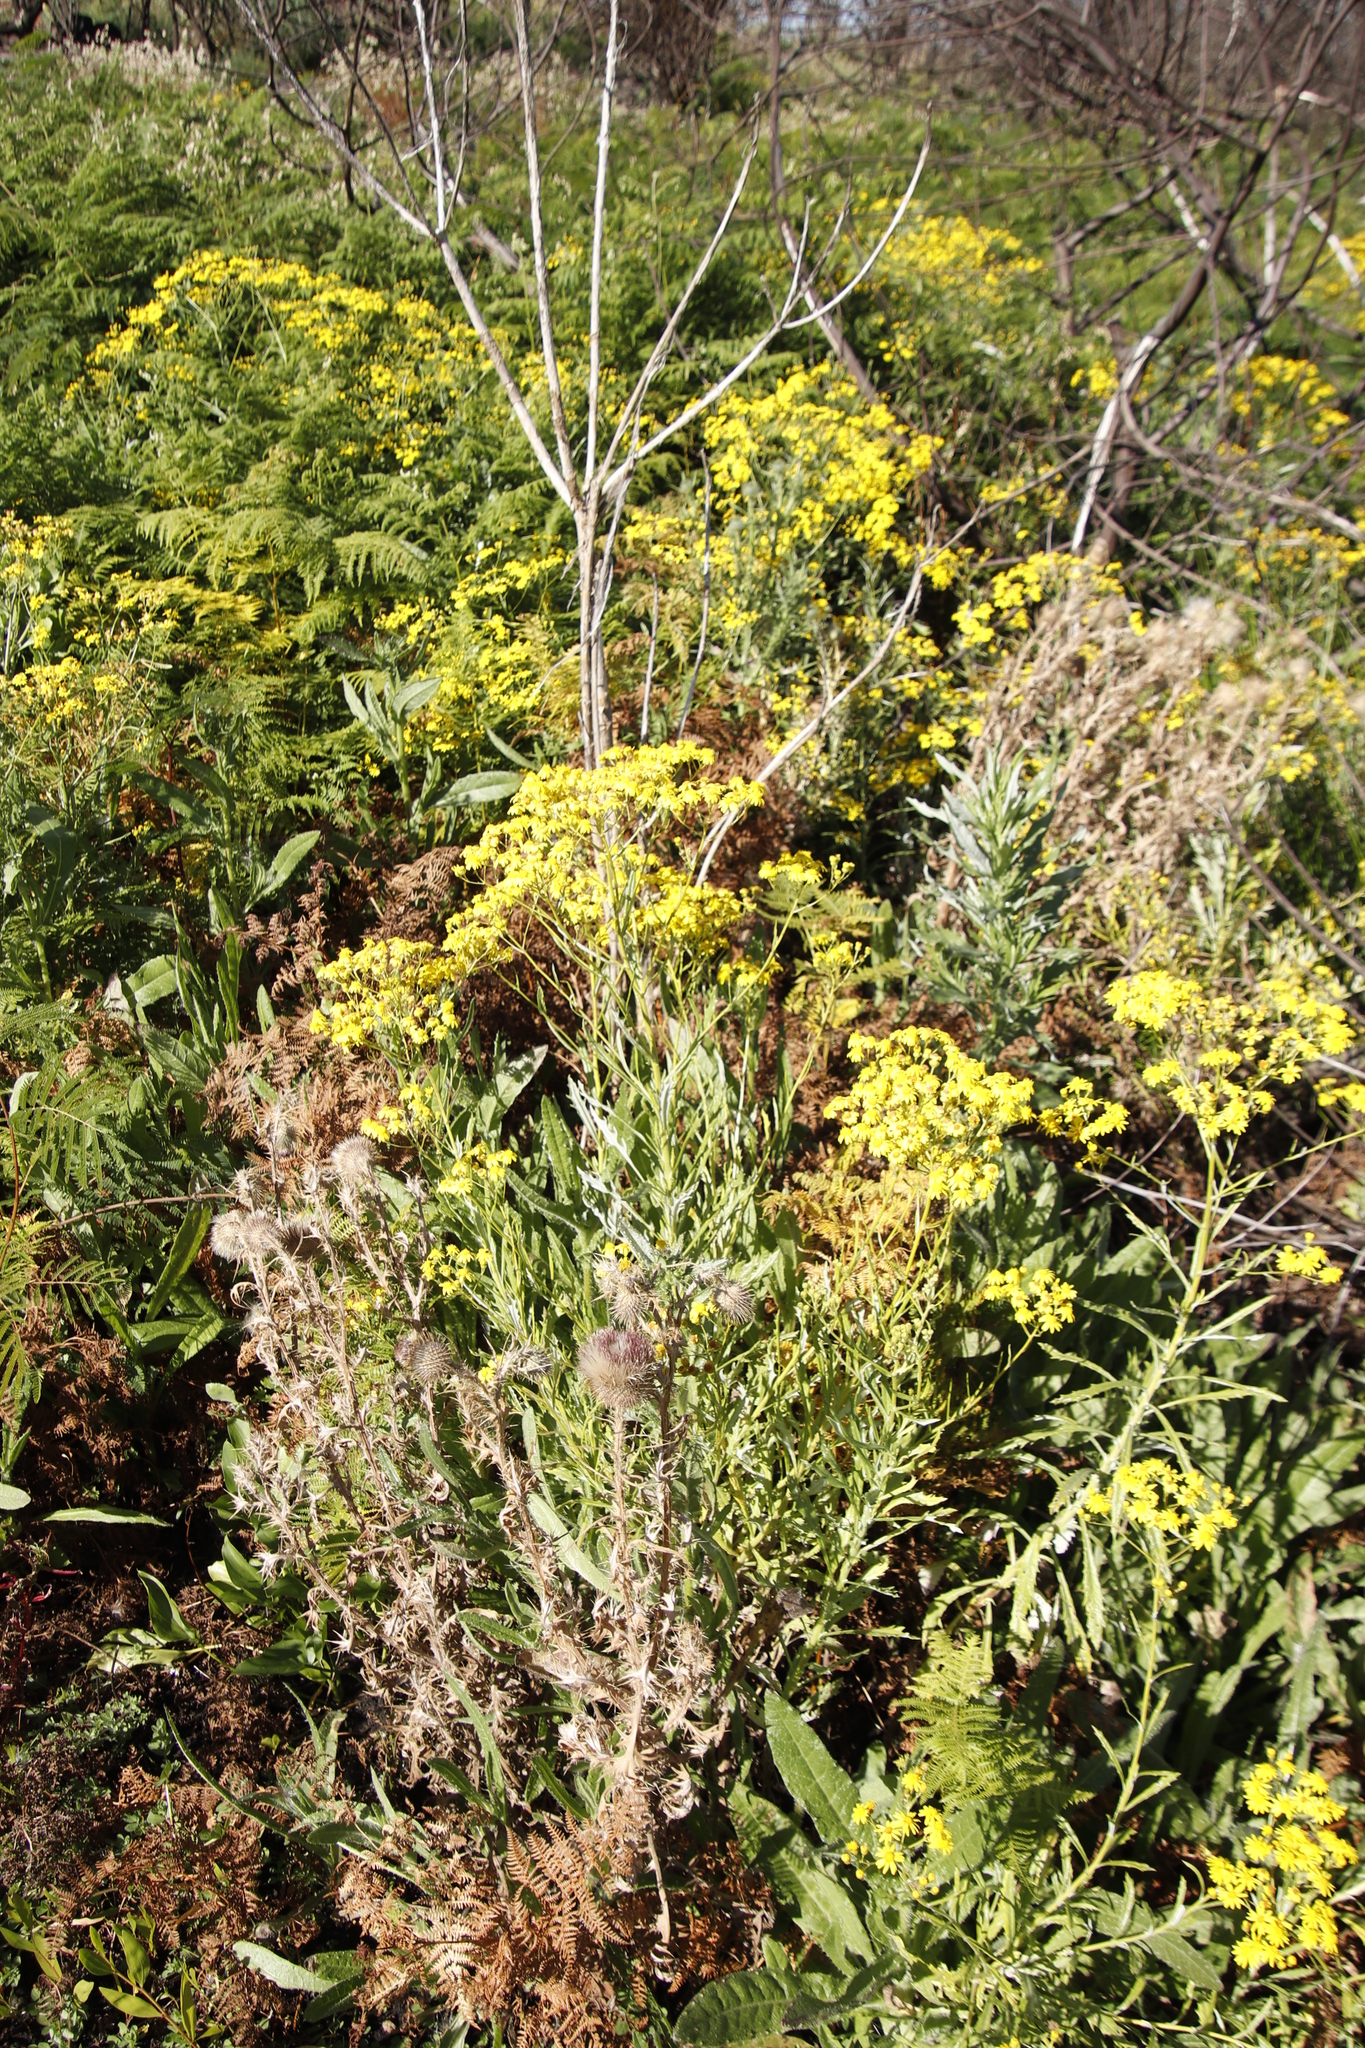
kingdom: Plantae
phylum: Tracheophyta
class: Magnoliopsida
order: Asterales
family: Asteraceae
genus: Senecio
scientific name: Senecio pterophorus
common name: Shoddy ragwort
